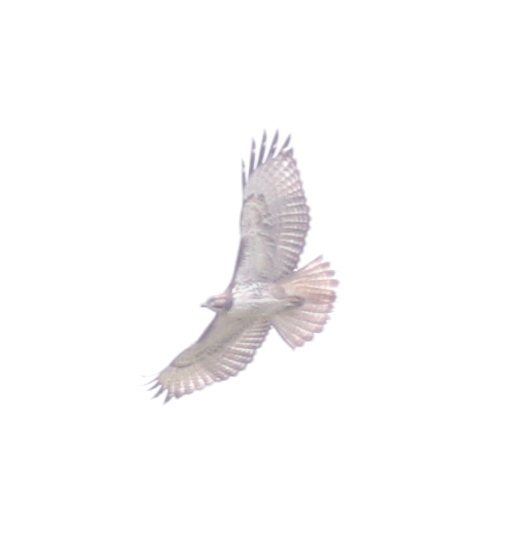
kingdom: Animalia
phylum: Chordata
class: Aves
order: Accipitriformes
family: Accipitridae
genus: Buteo
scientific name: Buteo jamaicensis
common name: Red-tailed hawk
